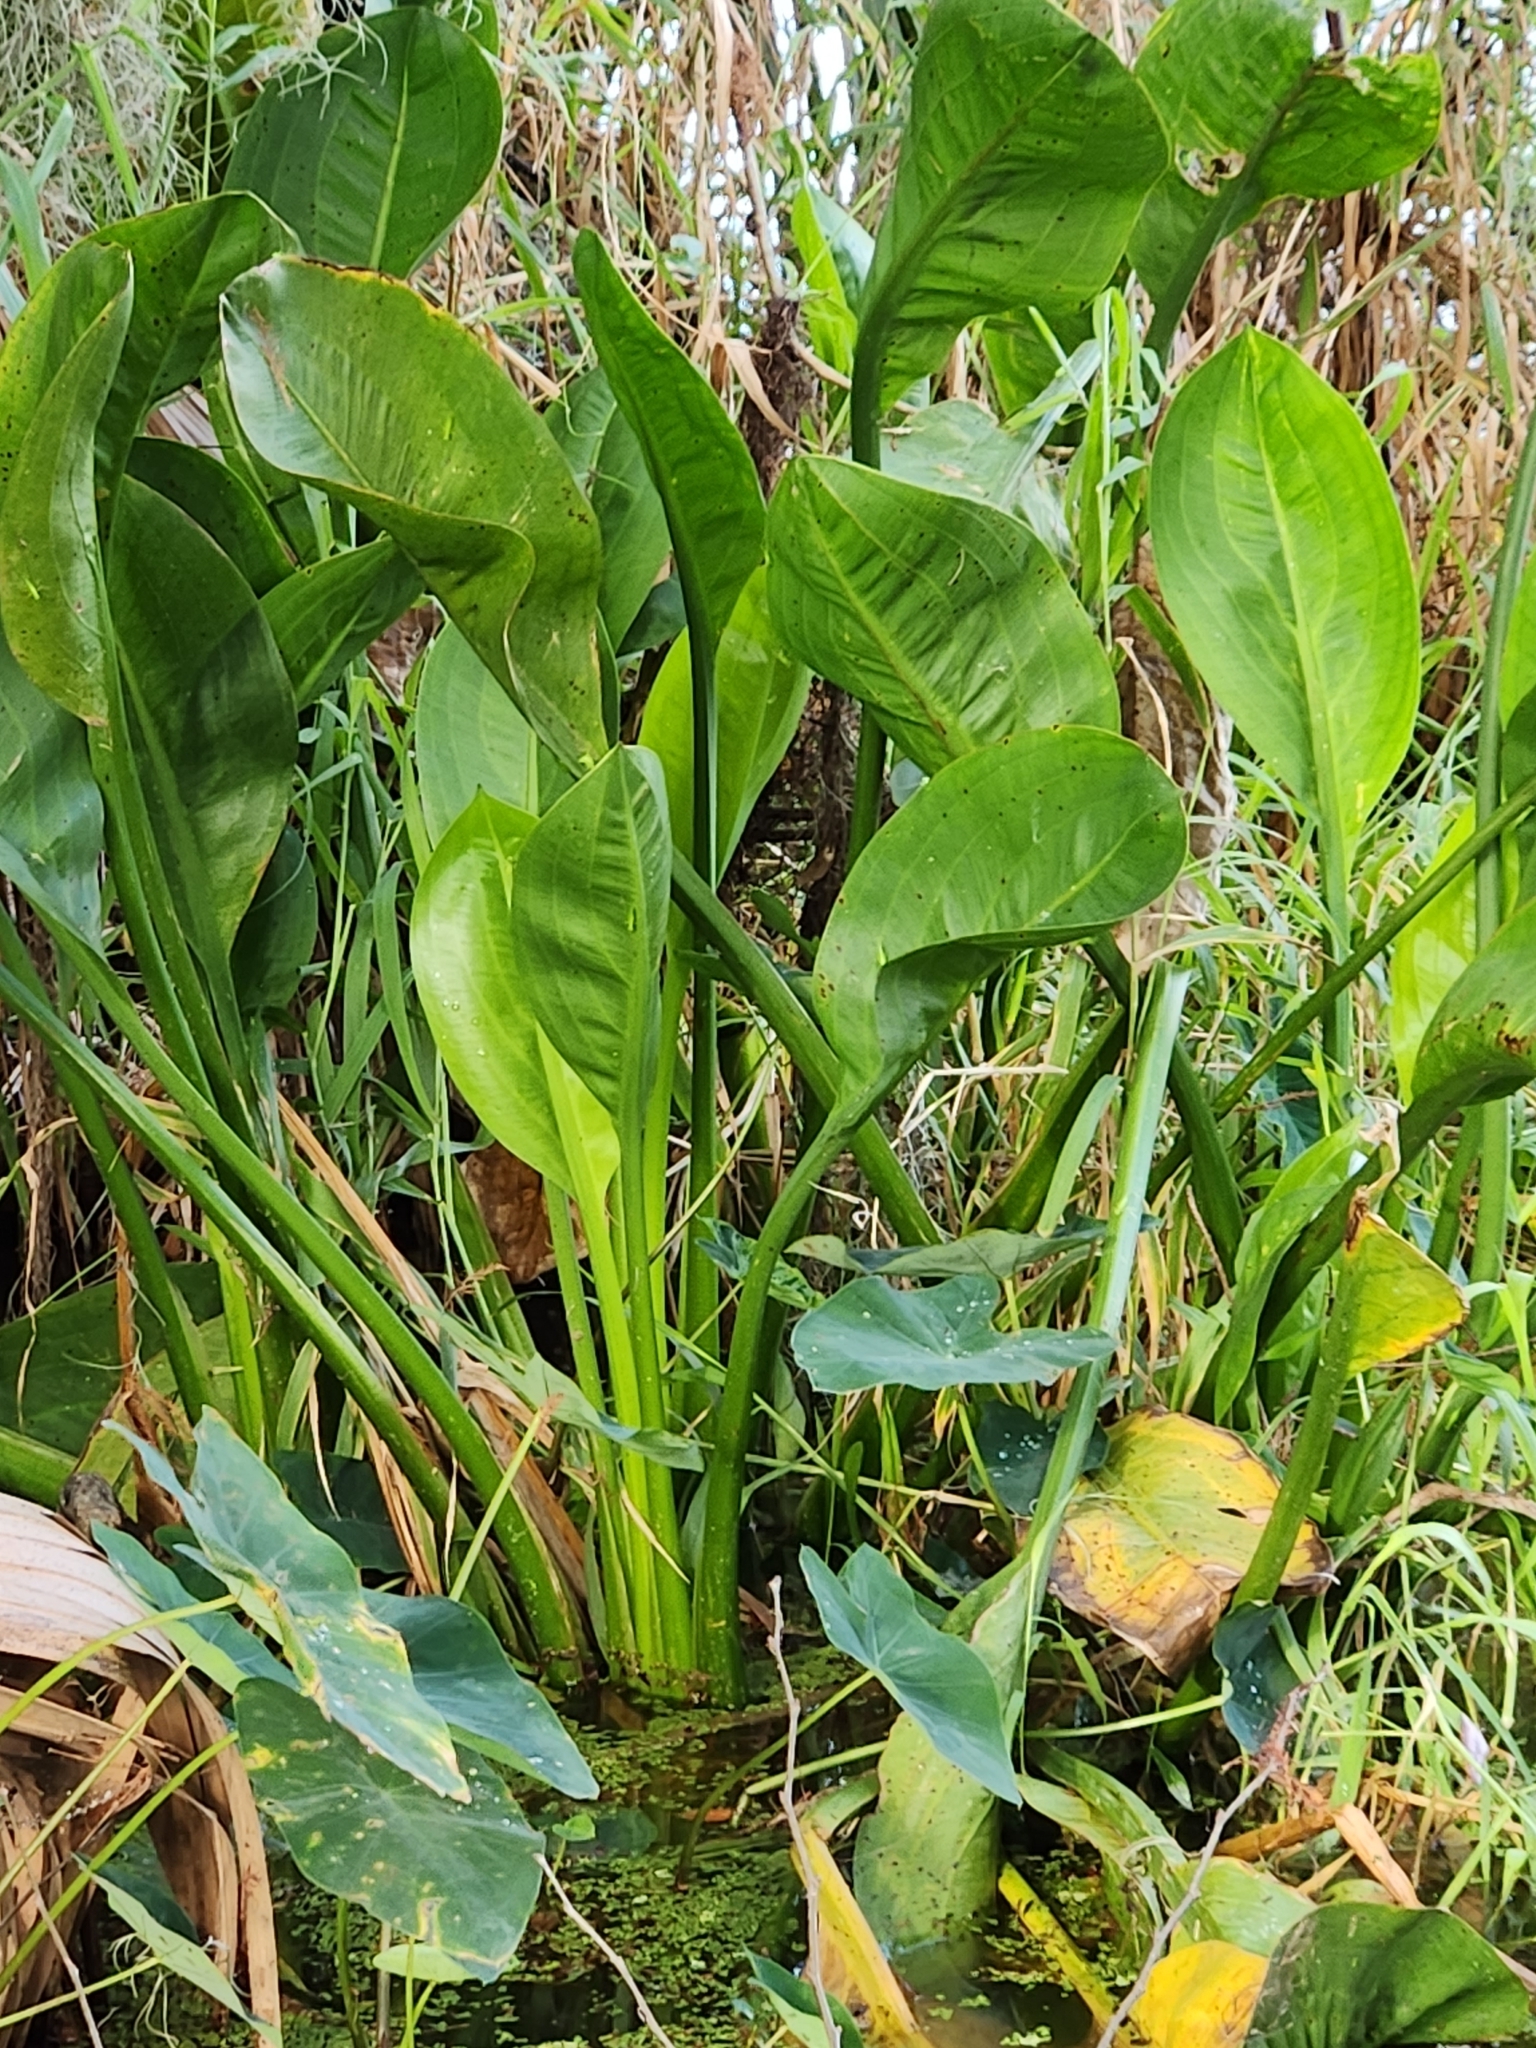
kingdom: Plantae
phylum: Tracheophyta
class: Liliopsida
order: Alismatales
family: Alismataceae
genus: Sagittaria
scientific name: Sagittaria lancifolia
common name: Lance-leaf arrowhead
